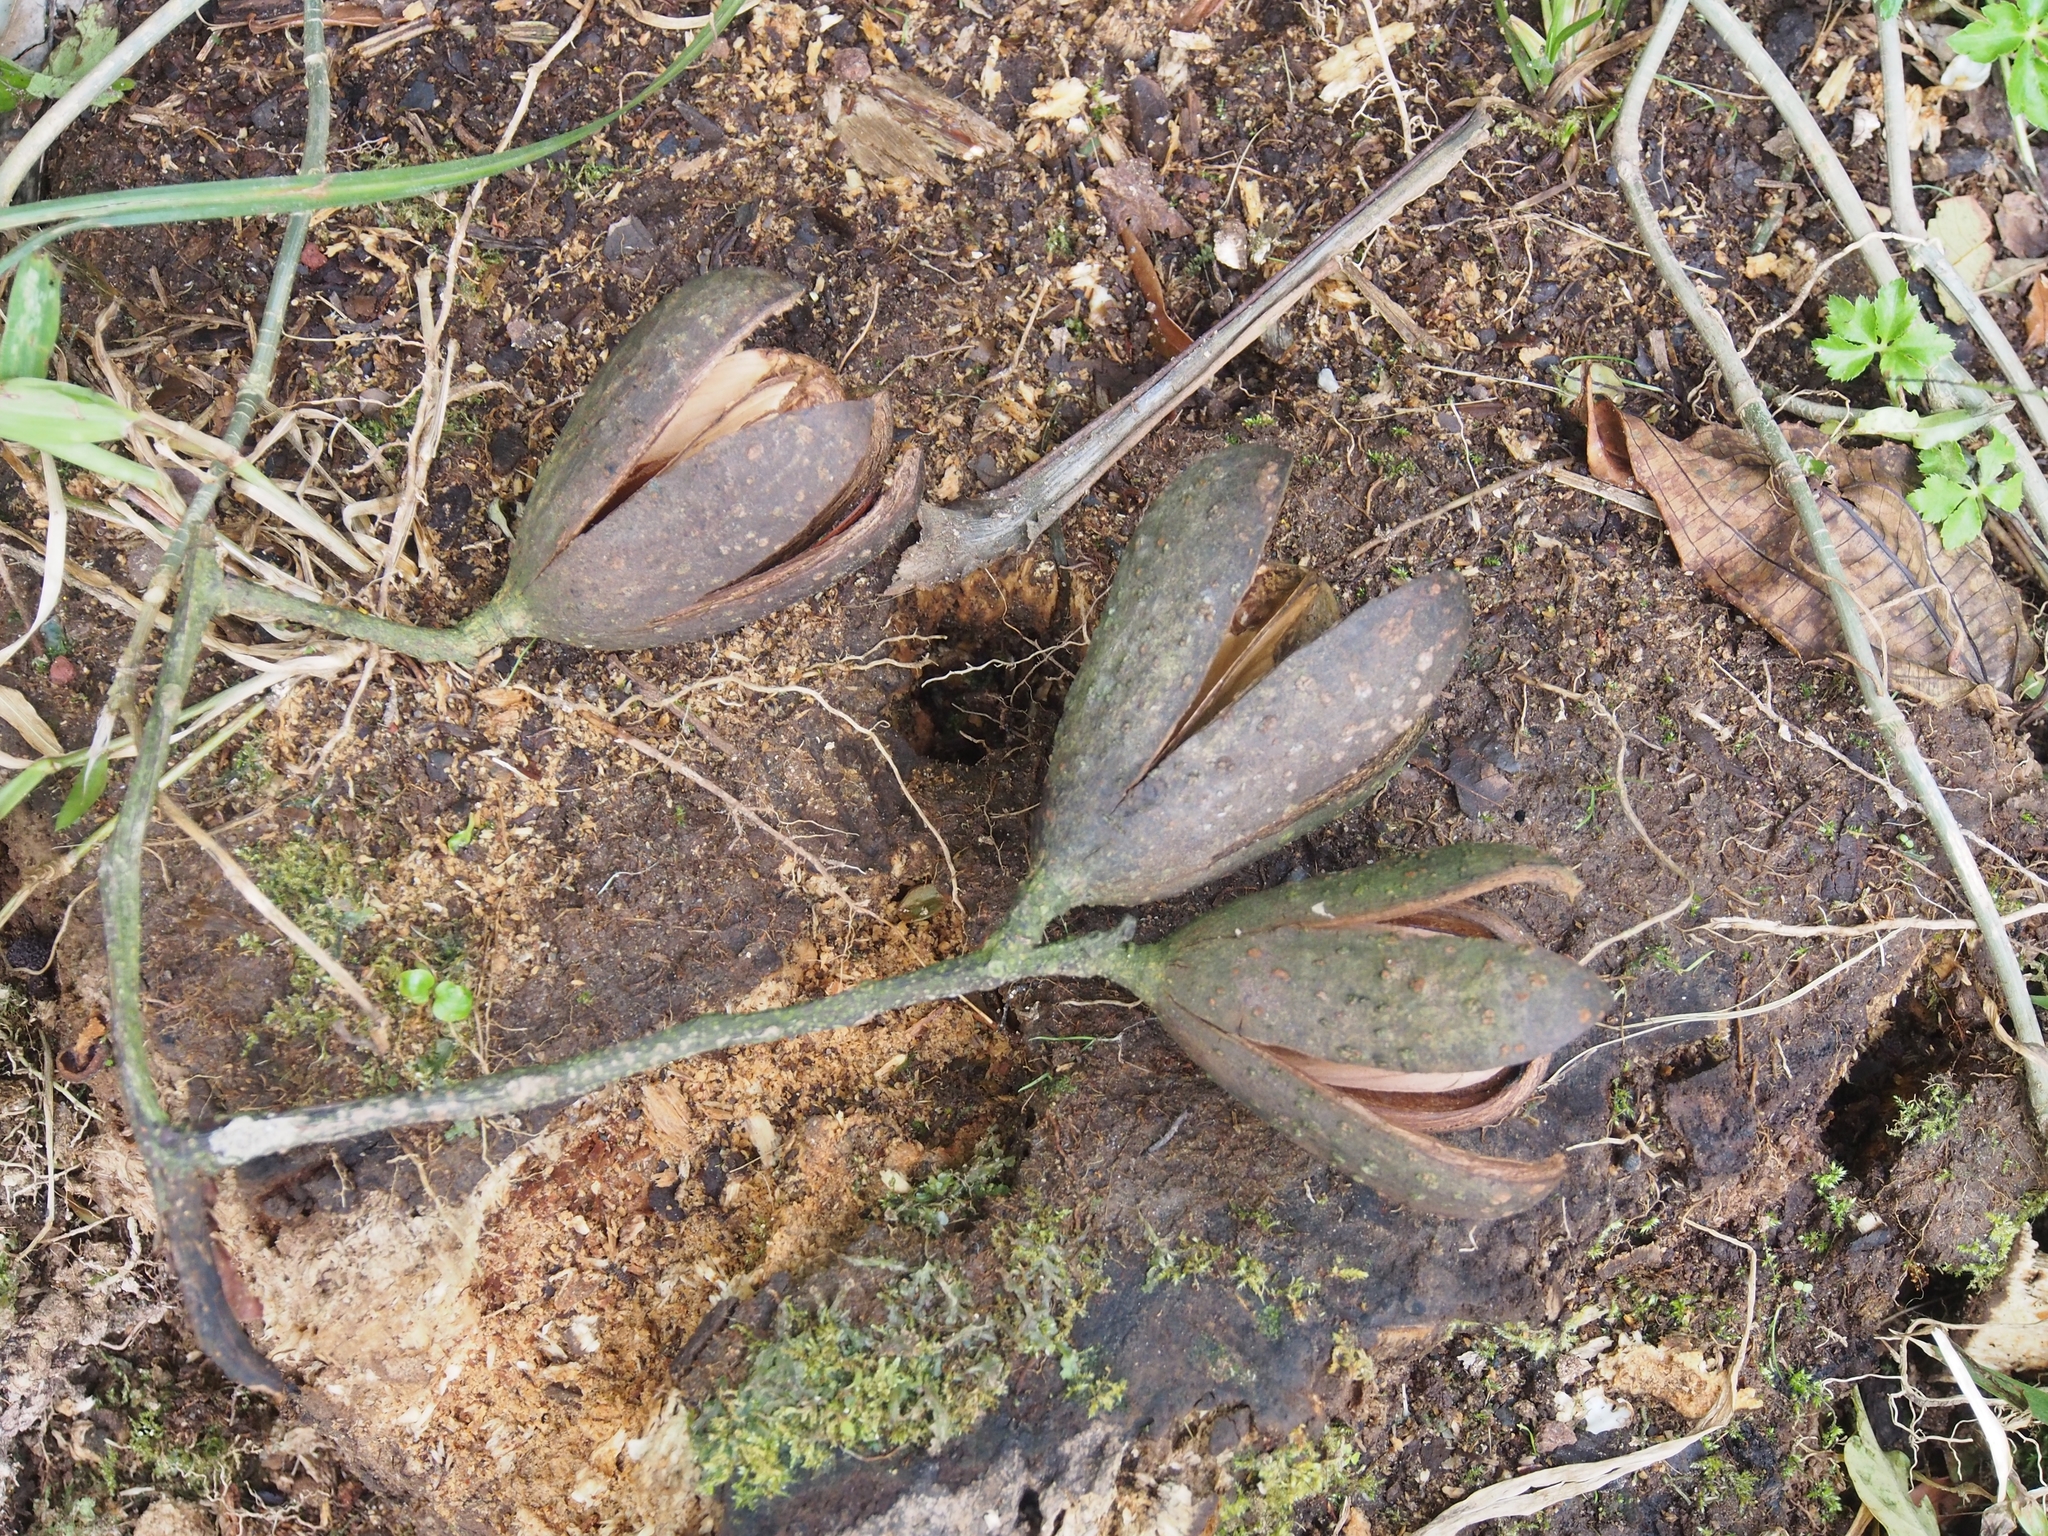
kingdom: Plantae
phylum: Tracheophyta
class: Magnoliopsida
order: Sapindales
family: Meliaceae
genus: Cedrela
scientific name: Cedrela tonduzii
